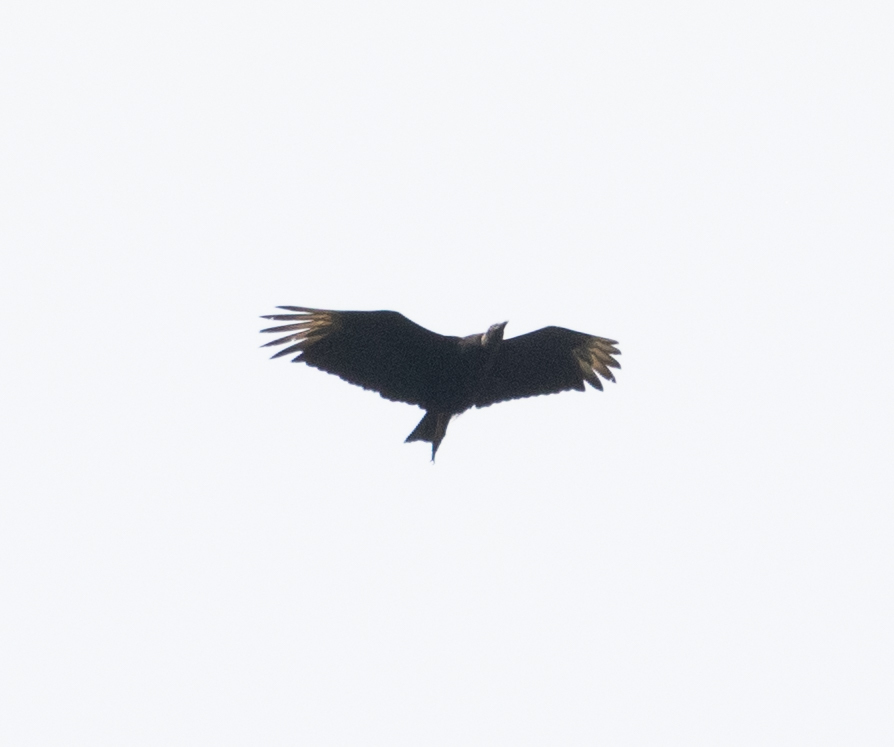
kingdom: Animalia
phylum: Chordata
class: Aves
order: Accipitriformes
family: Cathartidae
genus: Coragyps
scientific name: Coragyps atratus
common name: Black vulture
